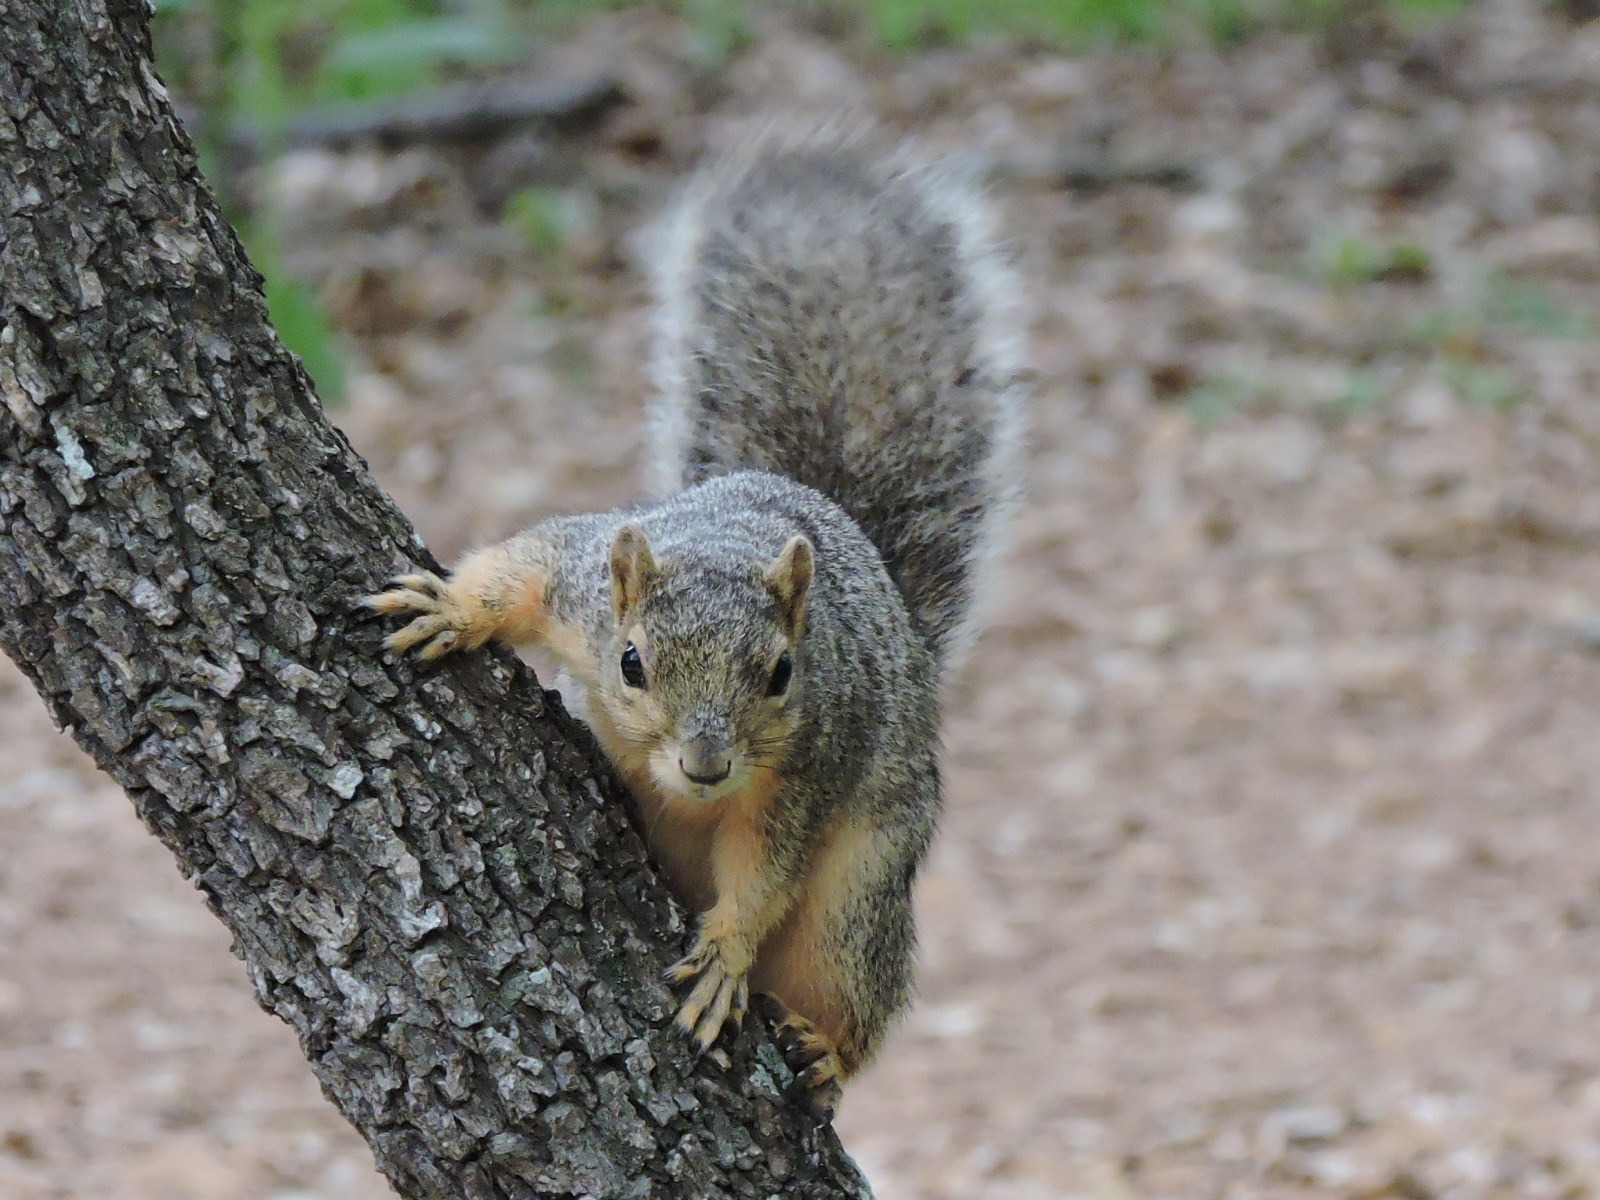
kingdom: Animalia
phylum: Chordata
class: Mammalia
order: Rodentia
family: Sciuridae
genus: Sciurus
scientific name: Sciurus niger
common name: Fox squirrel
